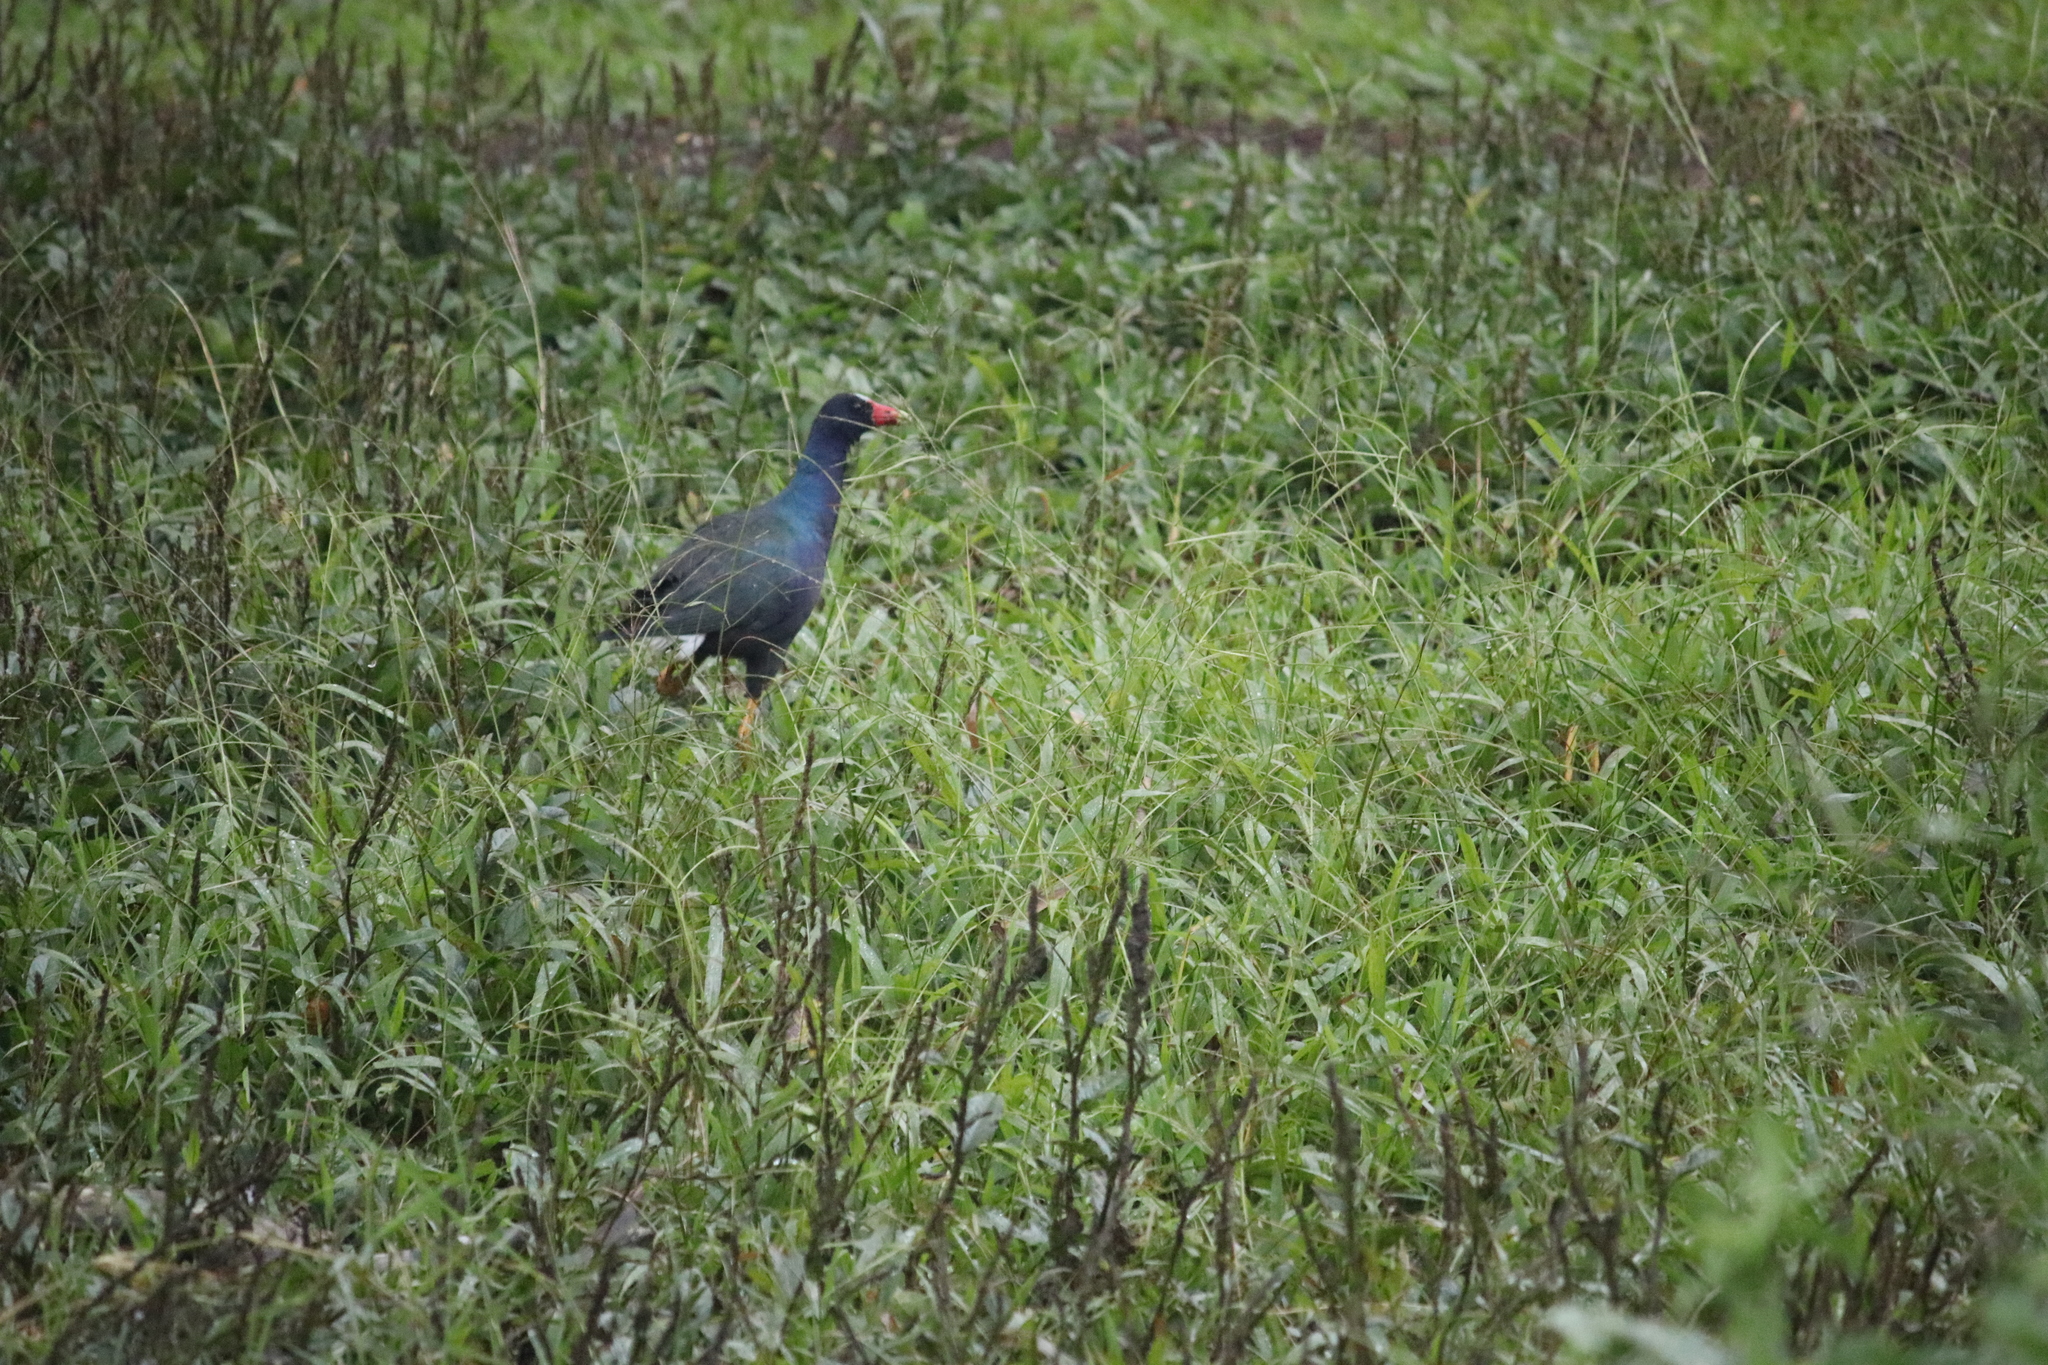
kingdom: Animalia
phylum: Chordata
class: Aves
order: Gruiformes
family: Rallidae
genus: Porphyrio
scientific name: Porphyrio martinica
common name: Purple gallinule
